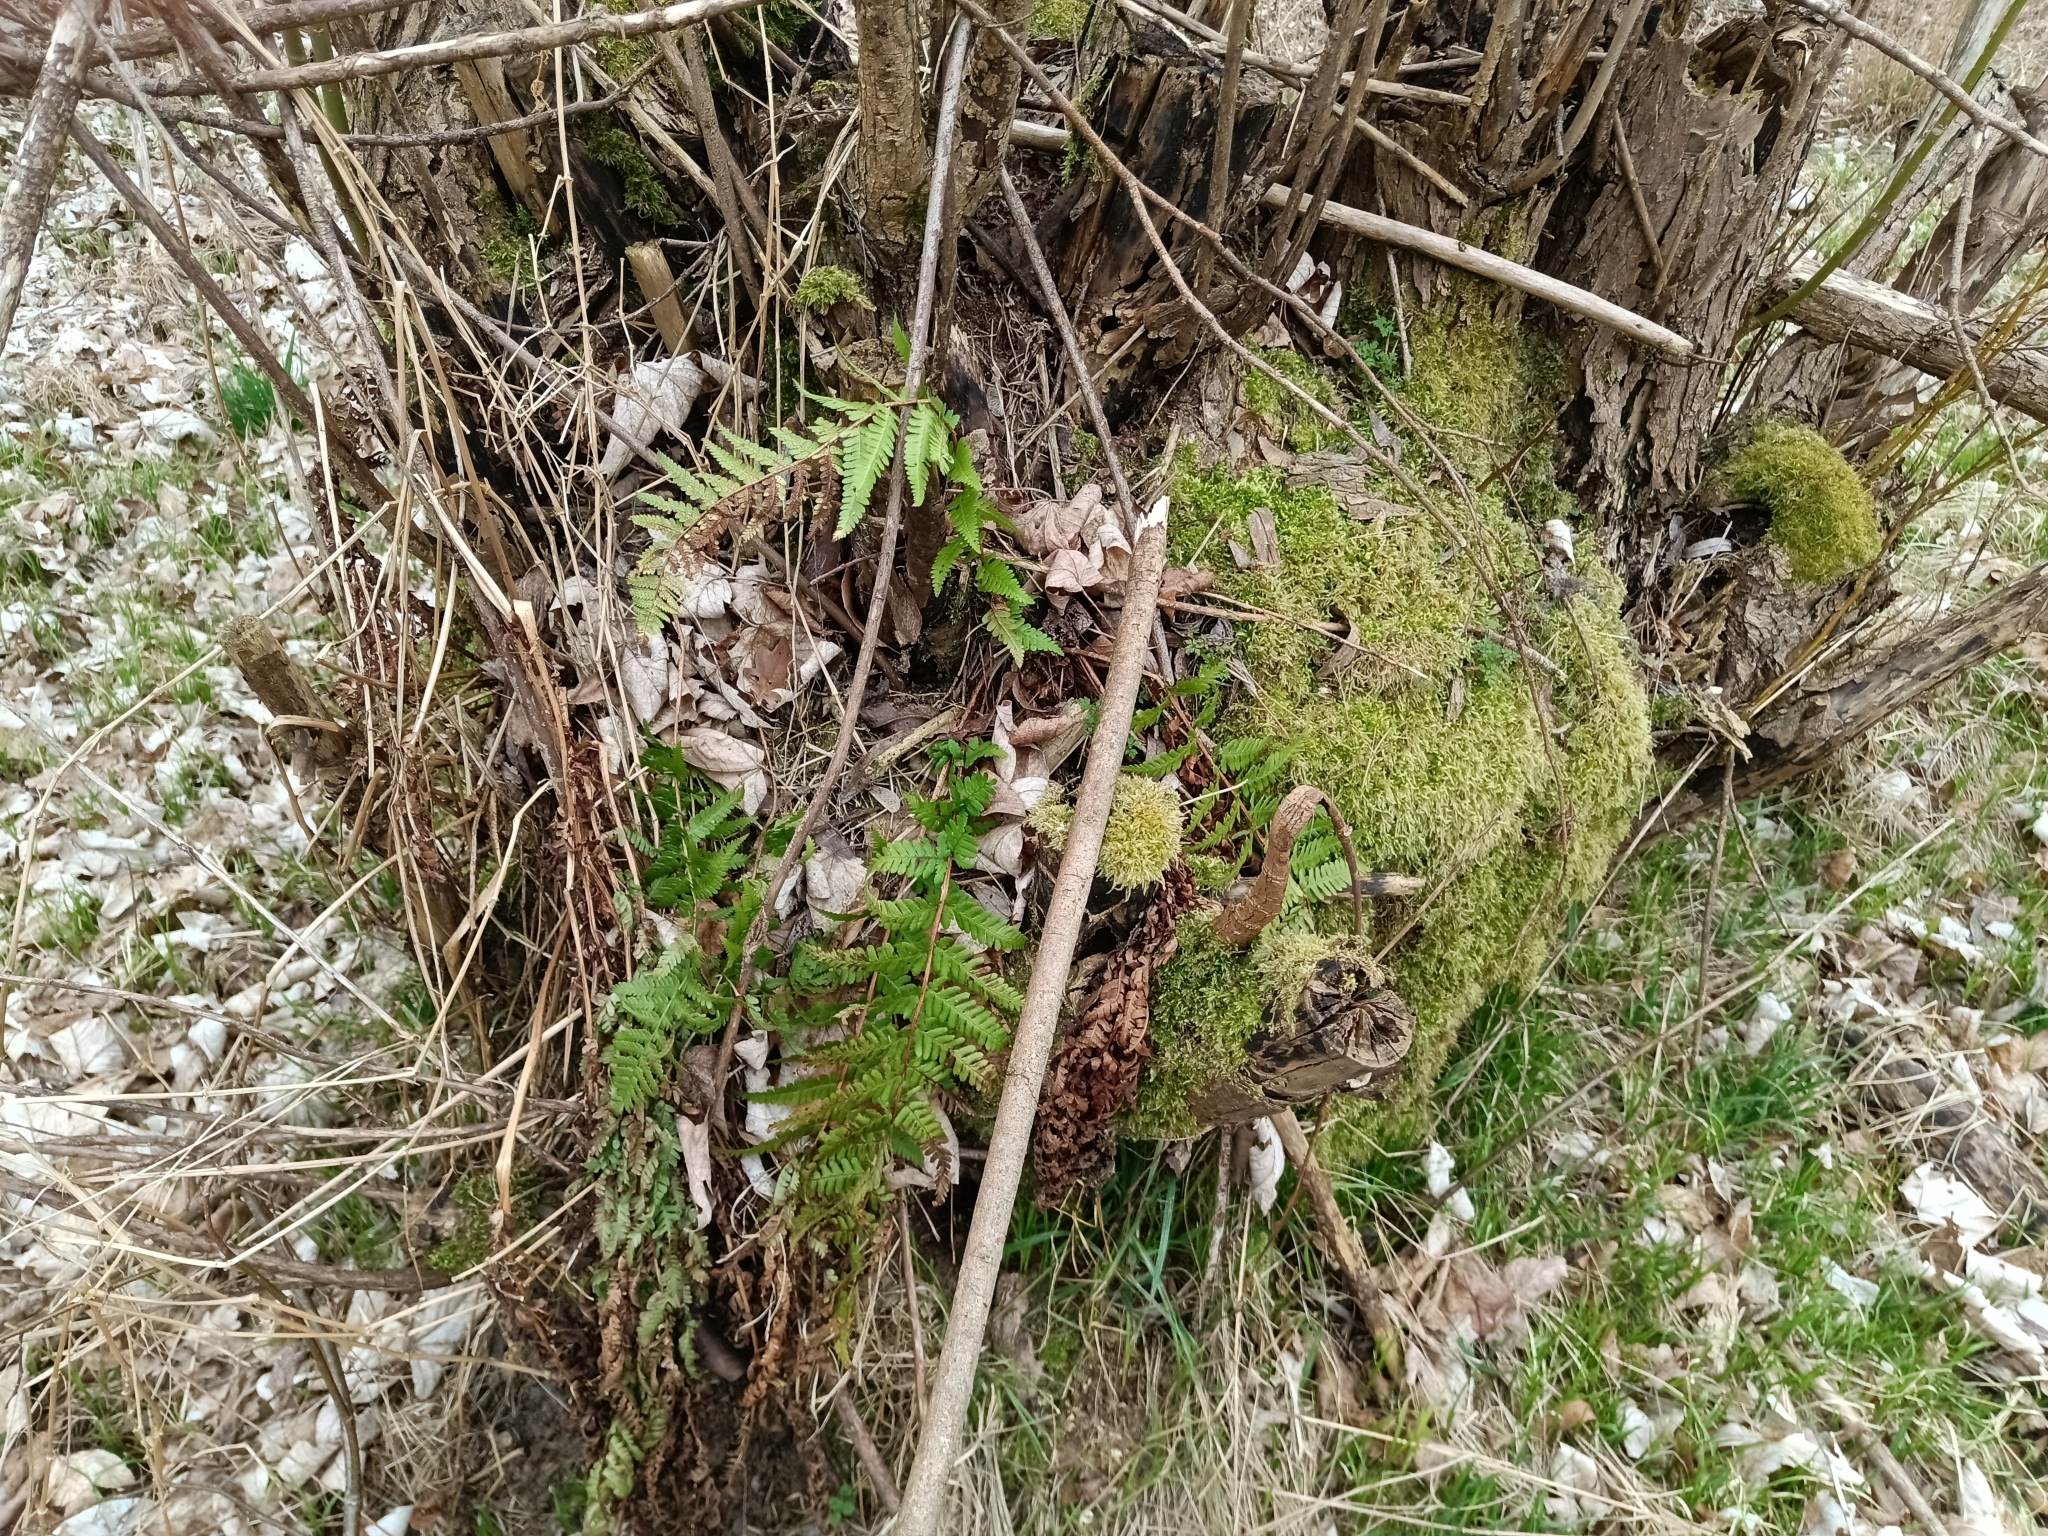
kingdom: Plantae
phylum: Tracheophyta
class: Polypodiopsida
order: Polypodiales
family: Dryopteridaceae
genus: Dryopteris
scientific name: Dryopteris filix-mas
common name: Male fern
